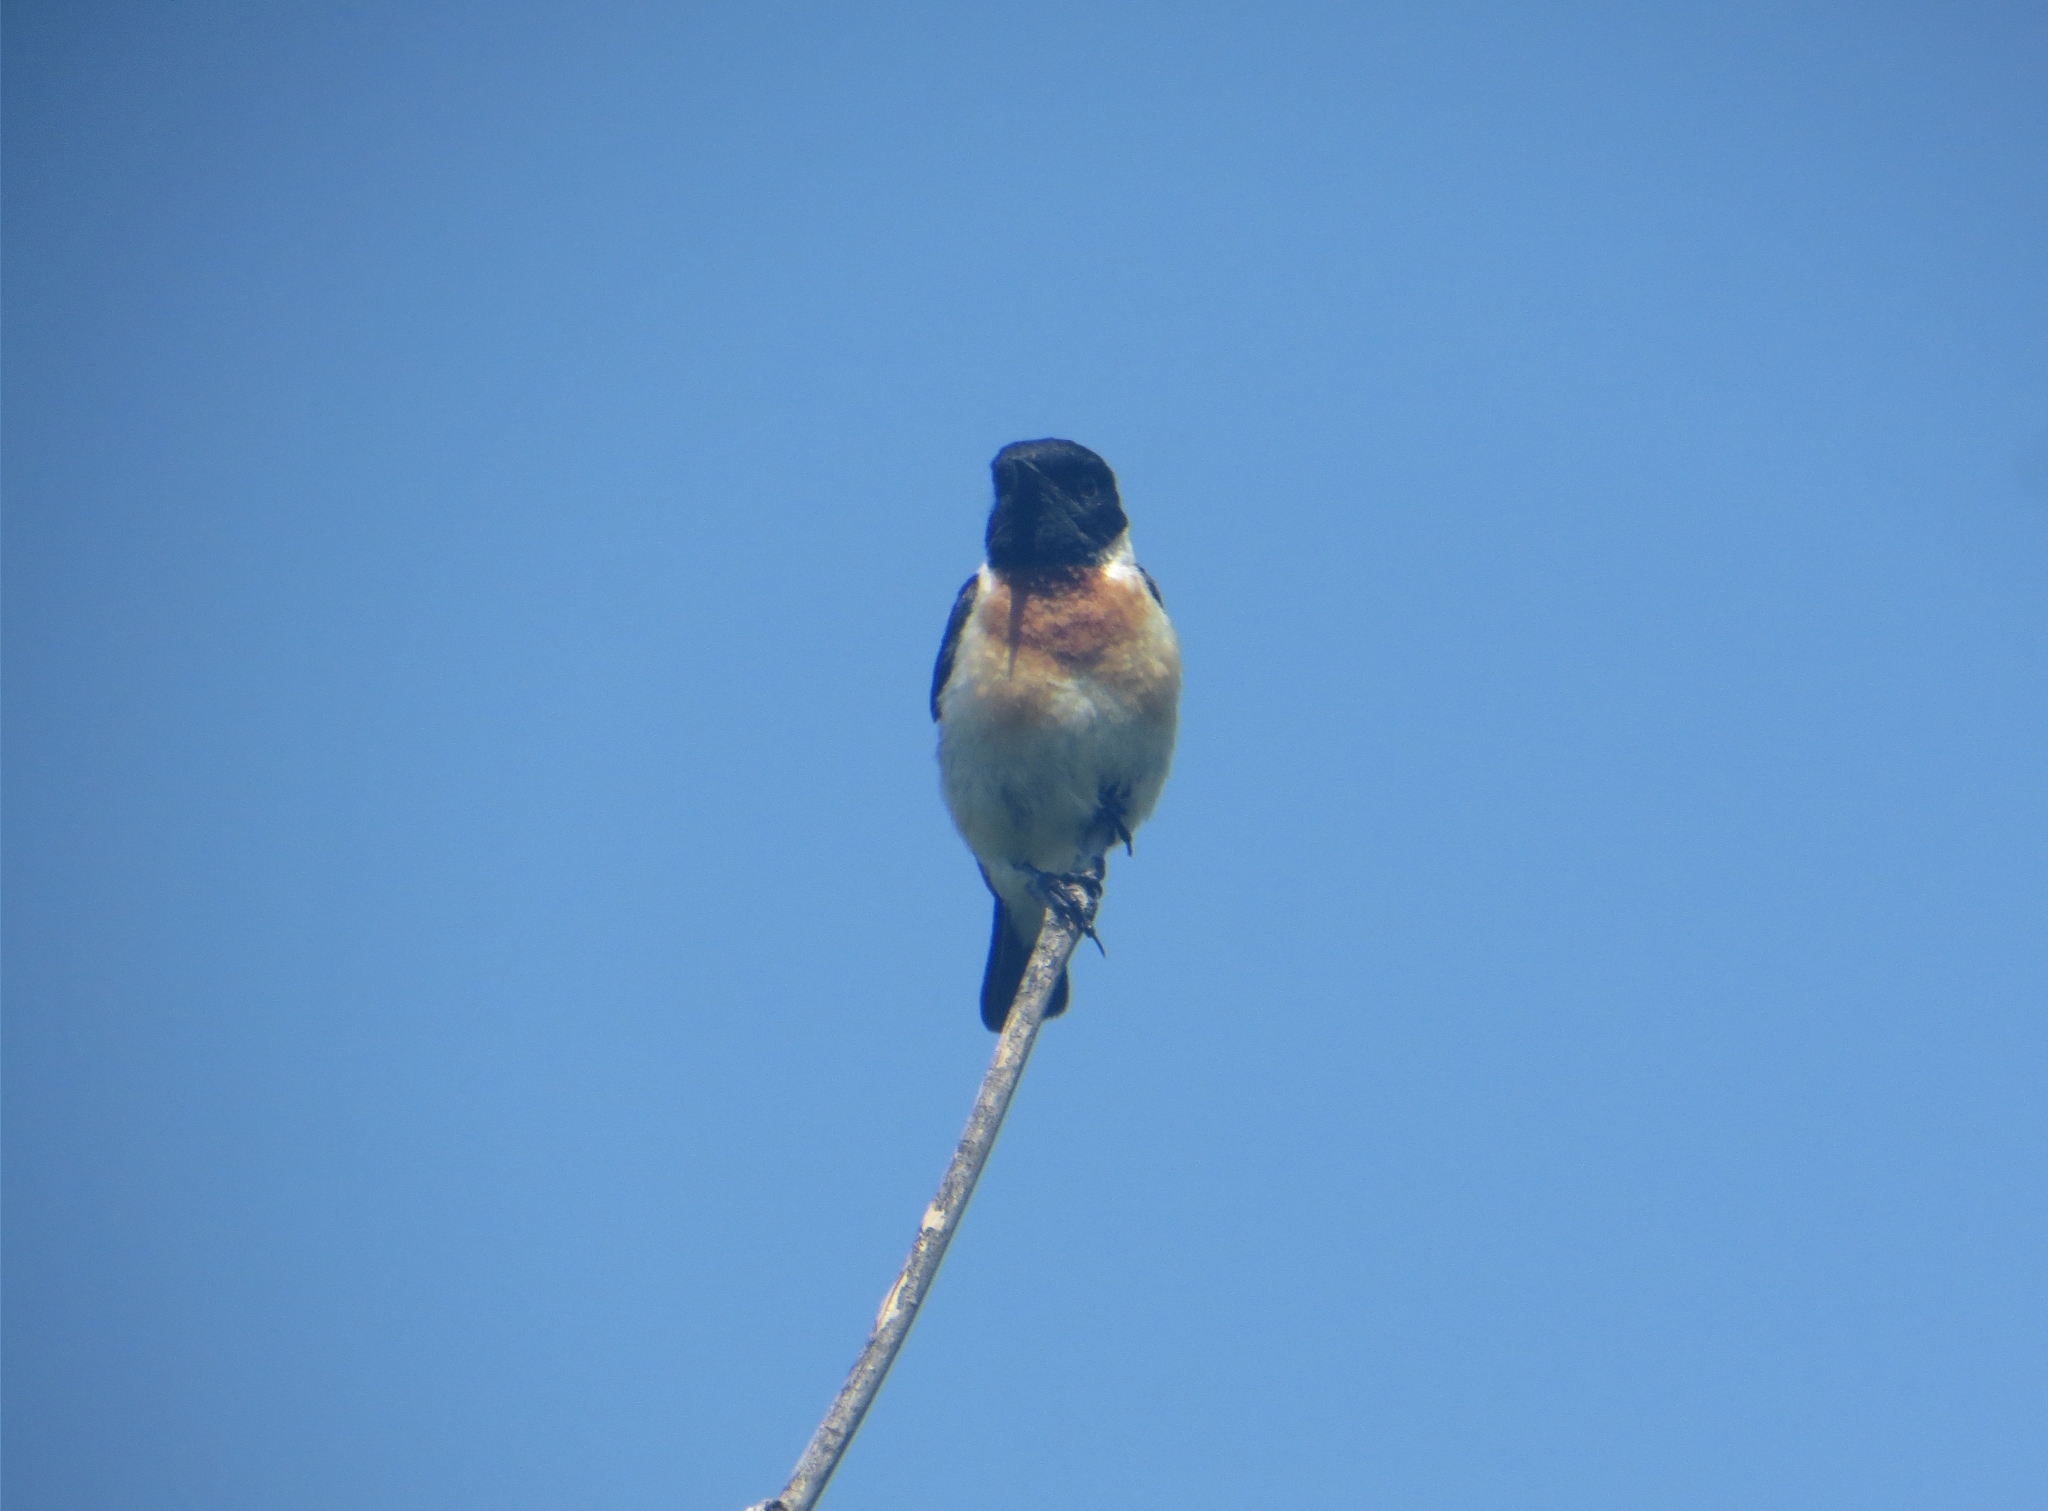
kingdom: Animalia
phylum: Chordata
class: Aves
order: Passeriformes
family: Muscicapidae
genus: Saxicola
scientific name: Saxicola maurus
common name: Siberian stonechat
